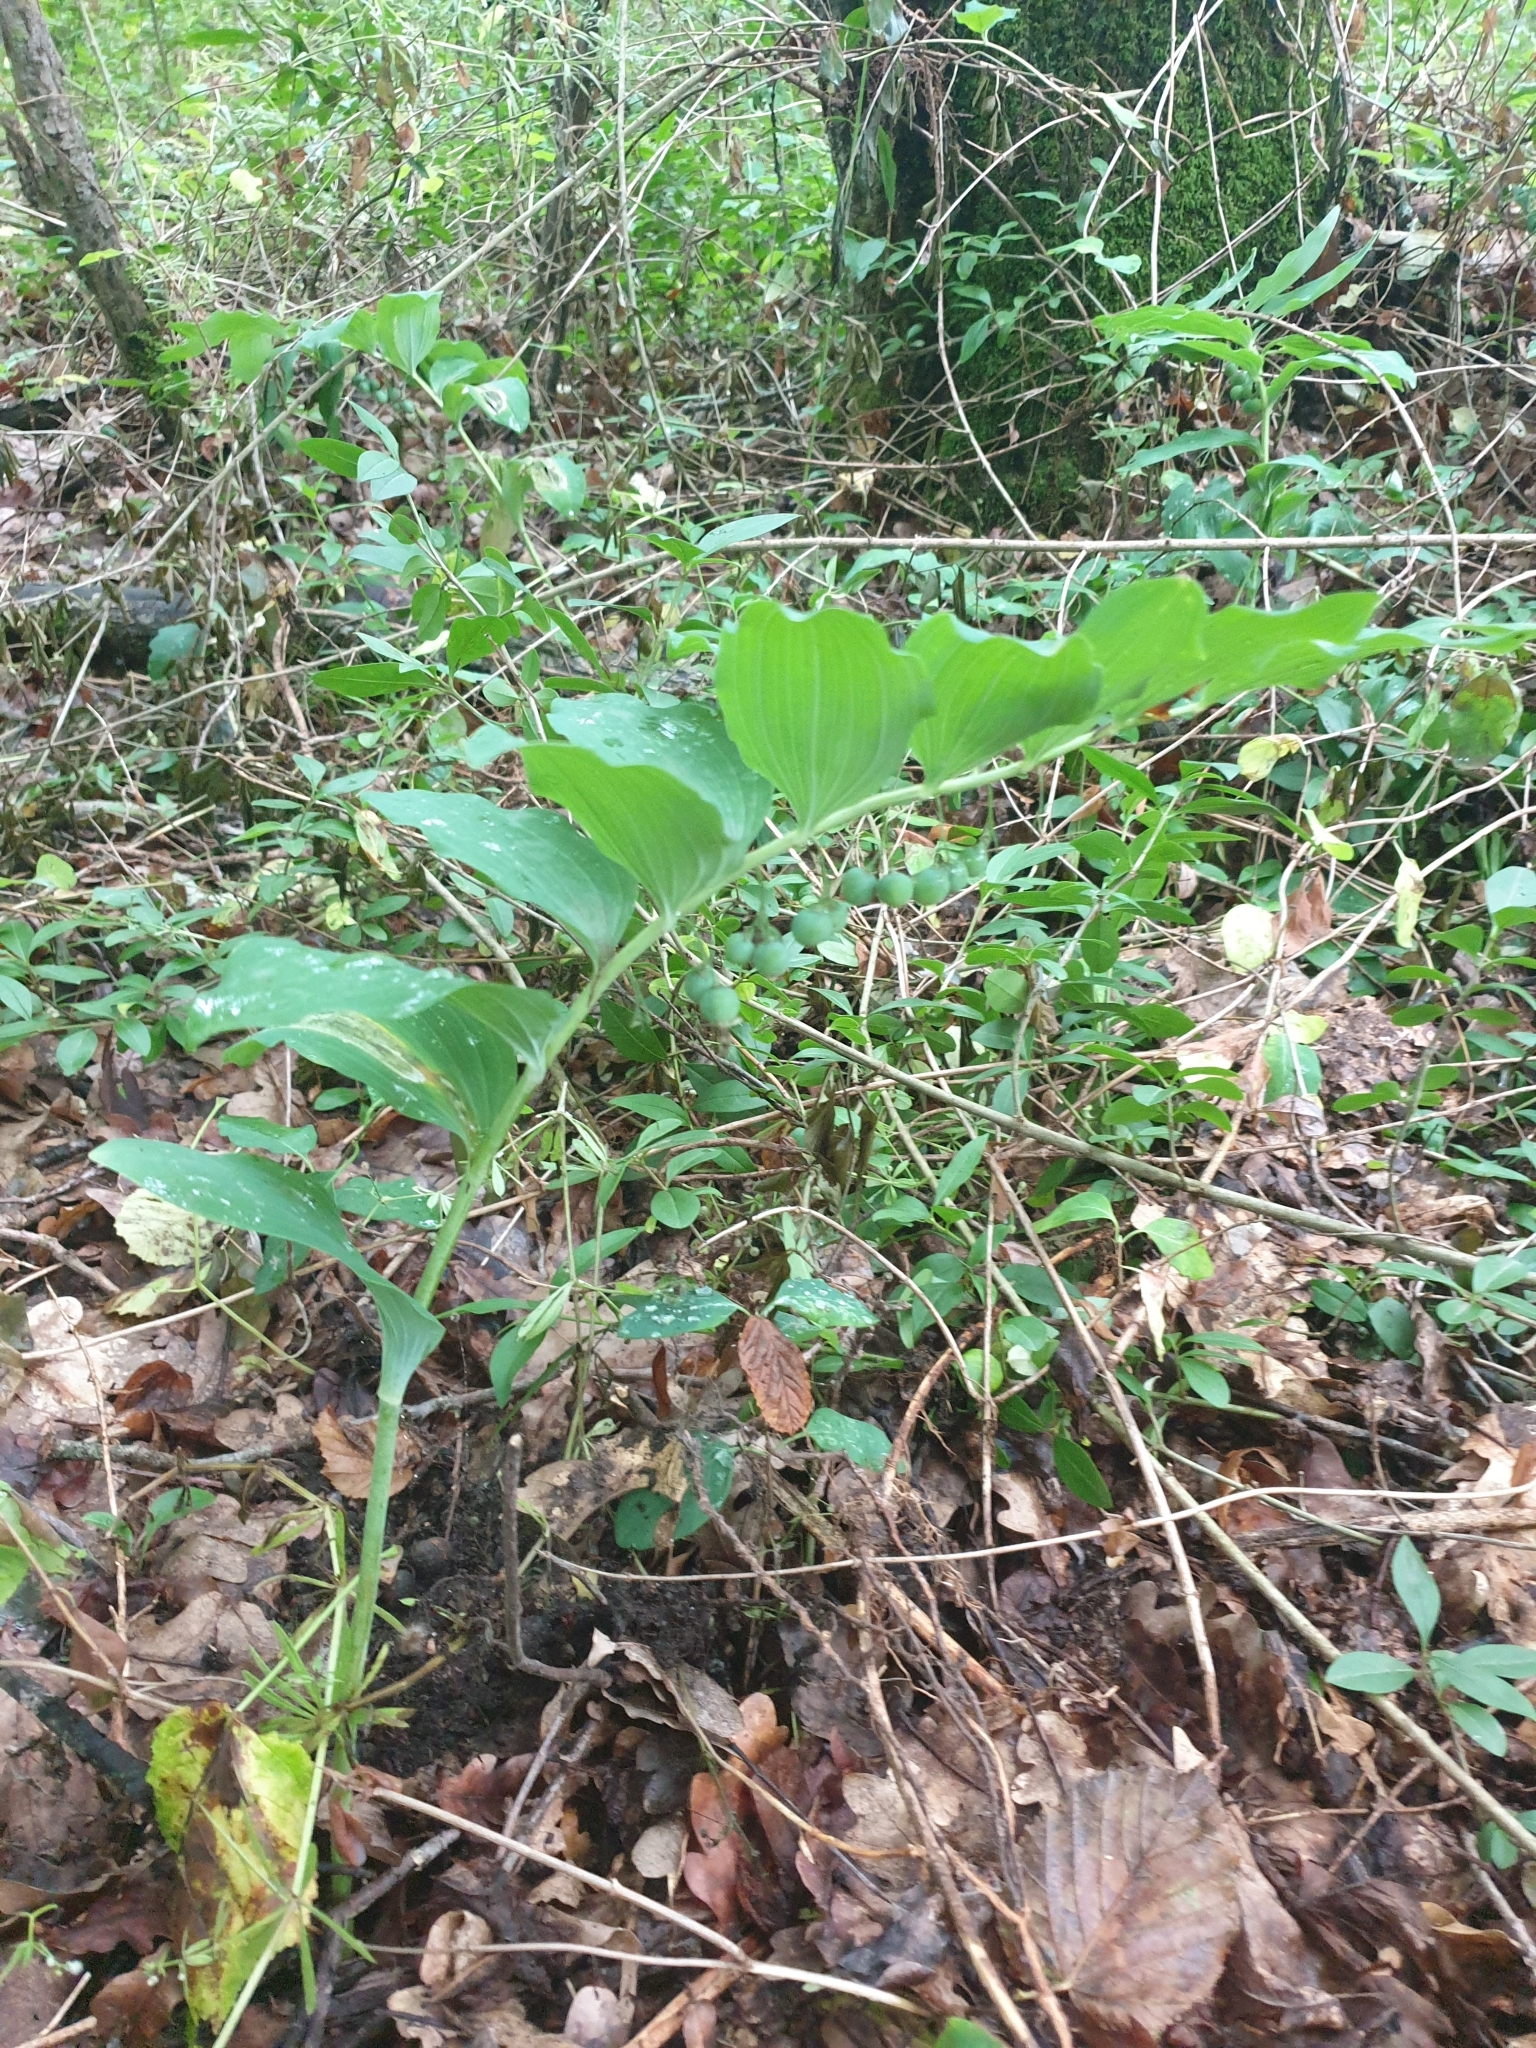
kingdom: Plantae
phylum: Tracheophyta
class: Liliopsida
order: Asparagales
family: Asparagaceae
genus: Polygonatum
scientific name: Polygonatum multiflorum
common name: Solomon's-seal
